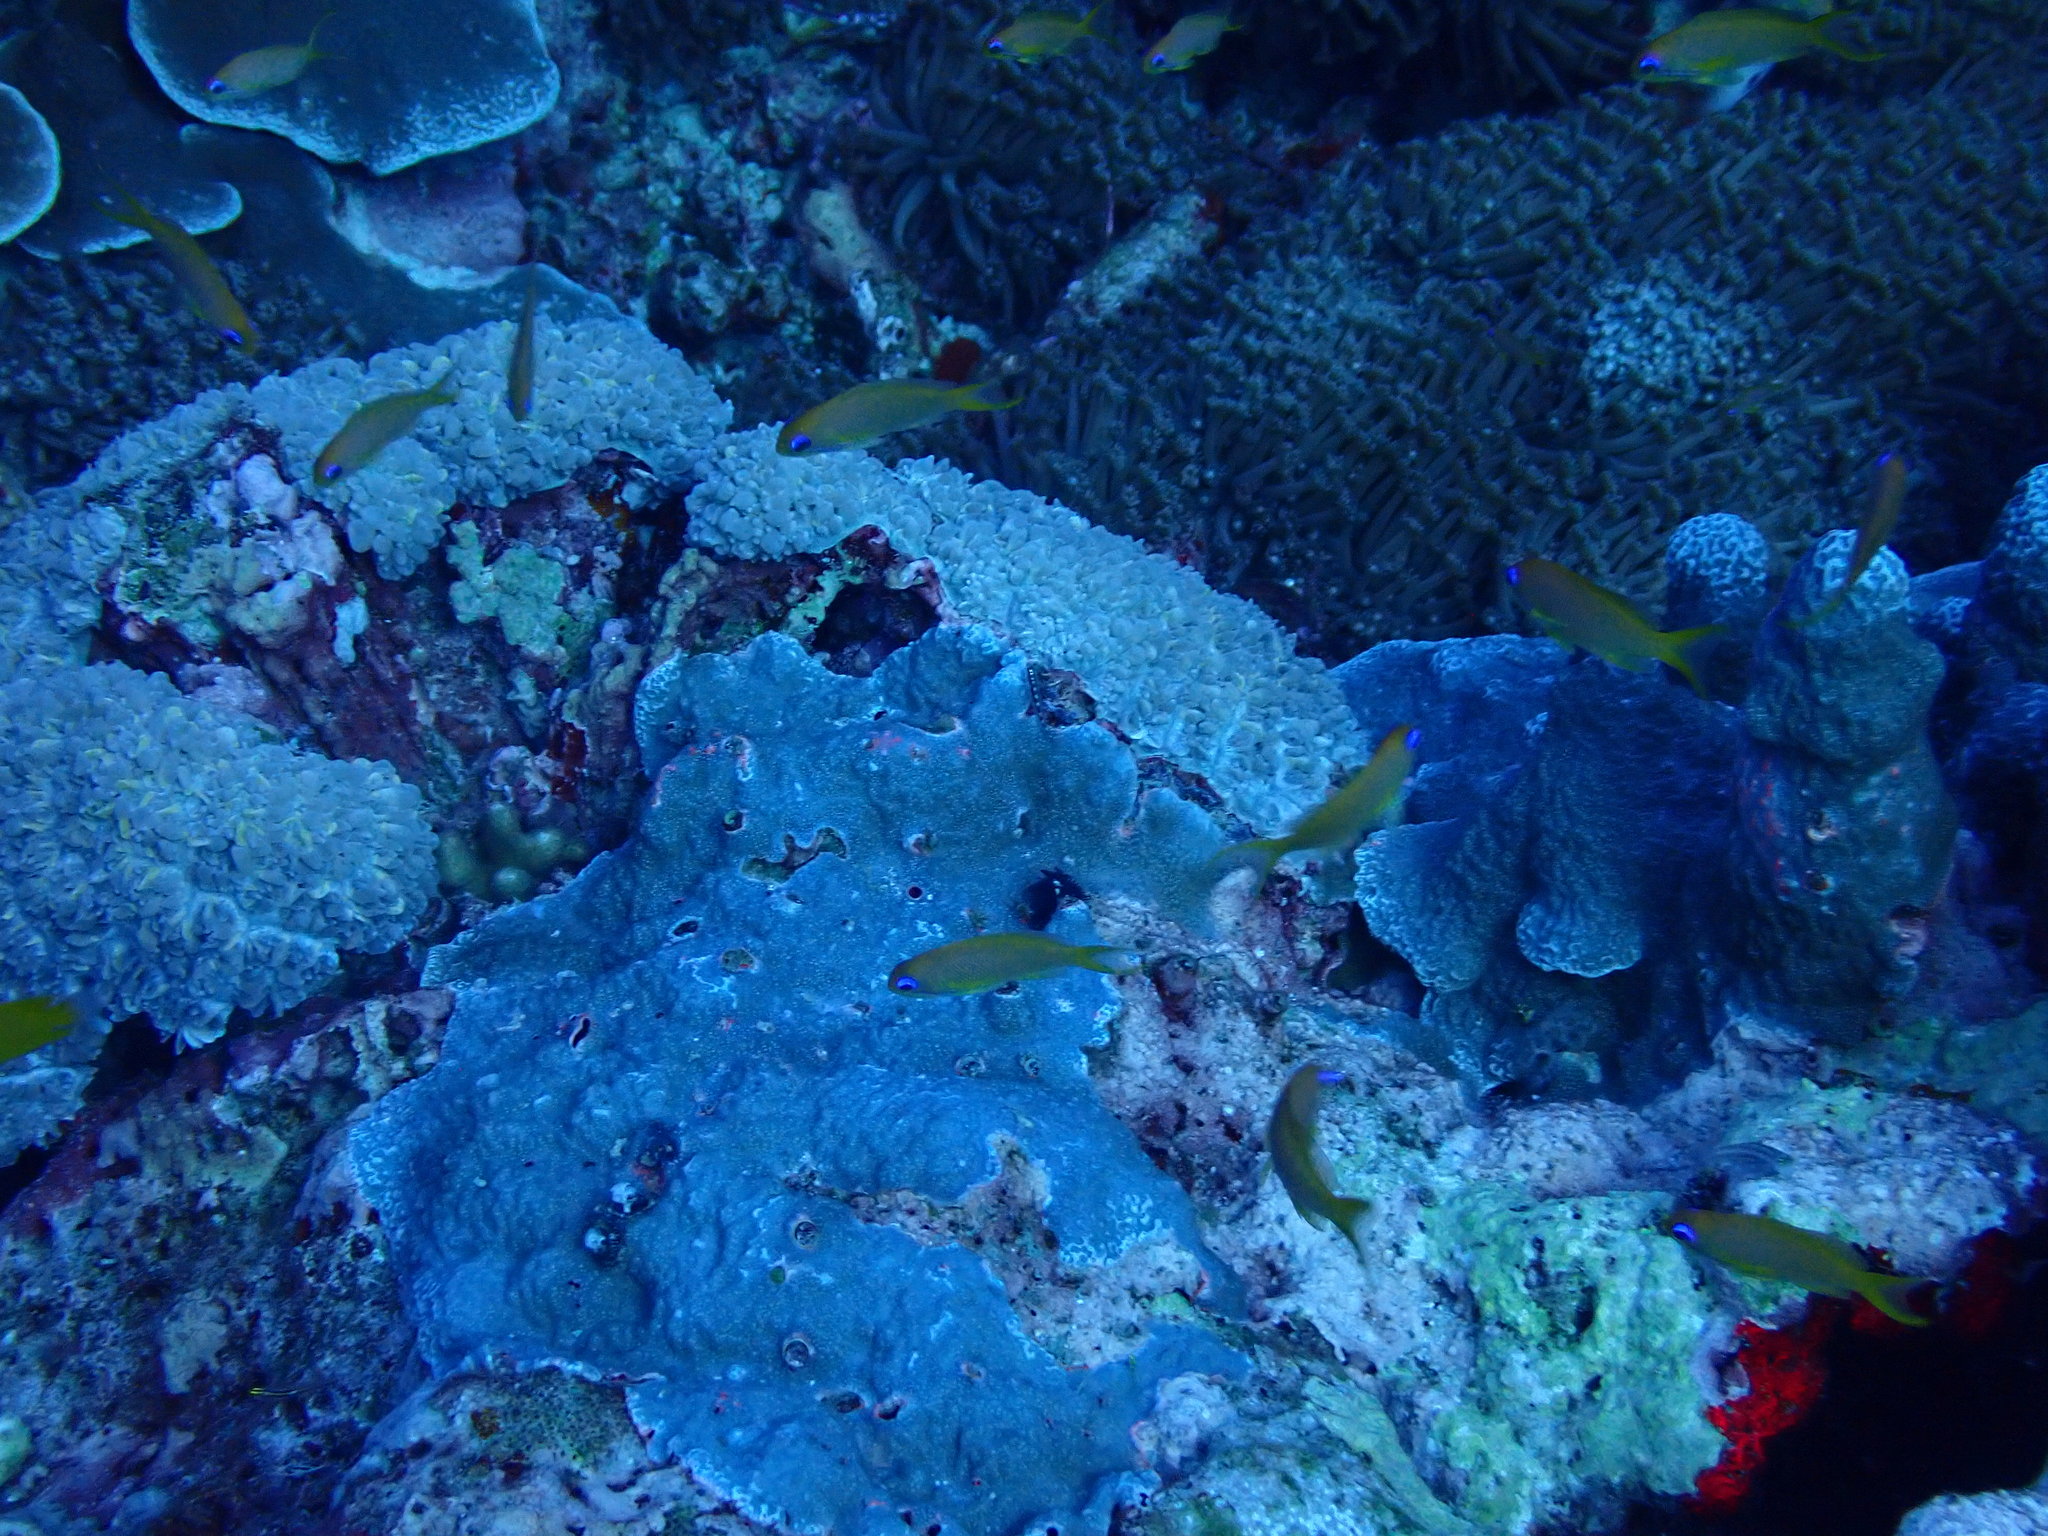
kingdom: Animalia
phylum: Chordata
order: Perciformes
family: Serranidae
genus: Pseudanthias
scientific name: Pseudanthias squamipinnis
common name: Scalefin anthias
